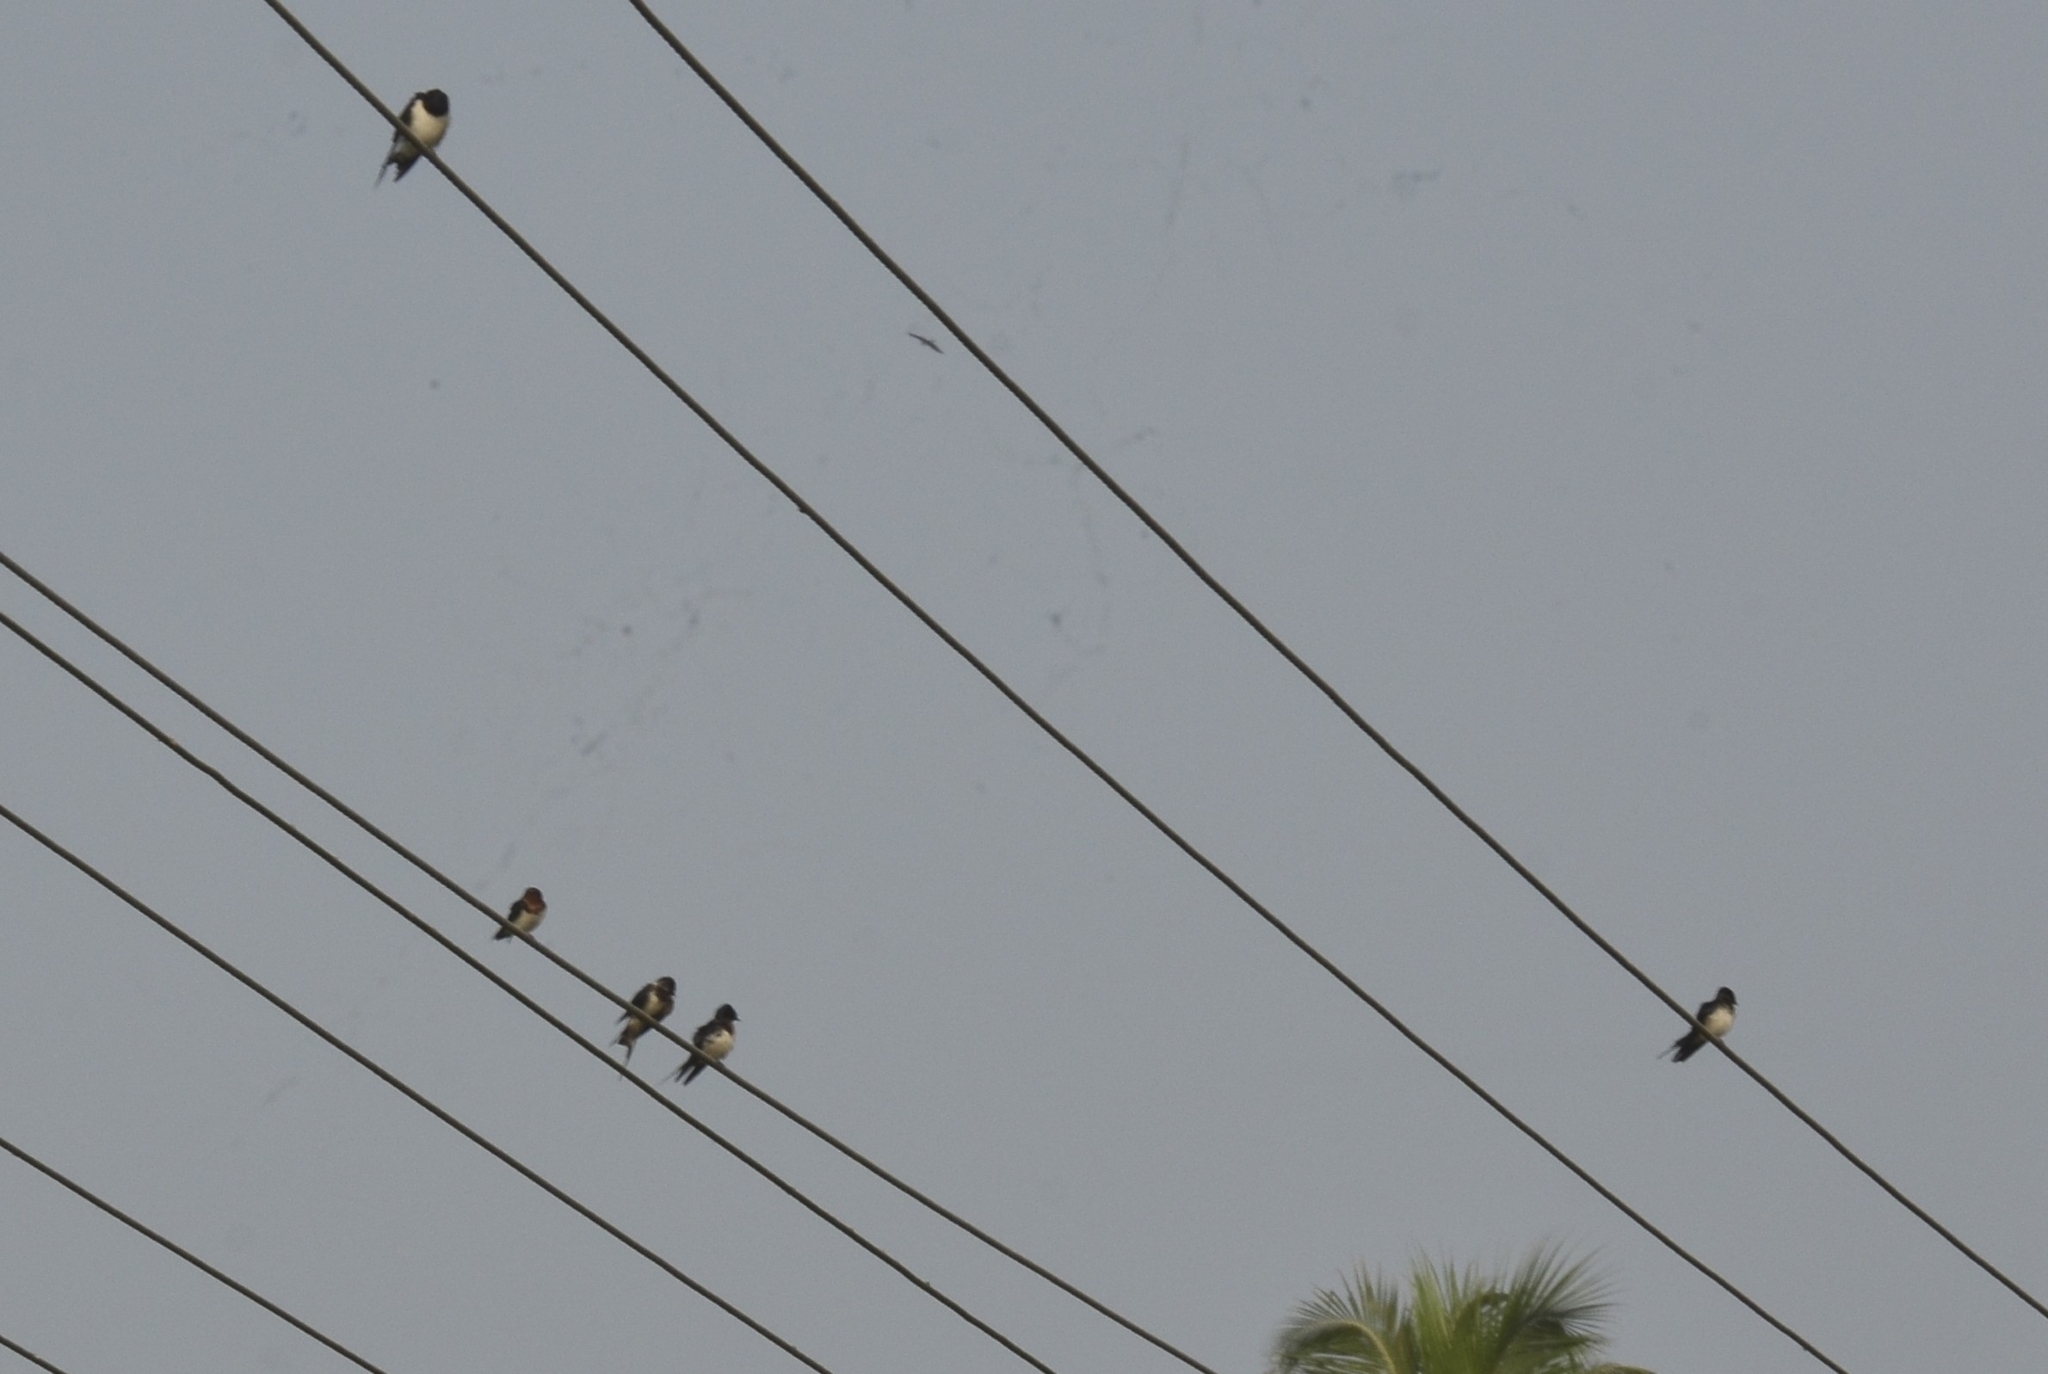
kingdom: Animalia
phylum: Chordata
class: Aves
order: Passeriformes
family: Hirundinidae
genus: Hirundo
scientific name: Hirundo rustica
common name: Barn swallow
